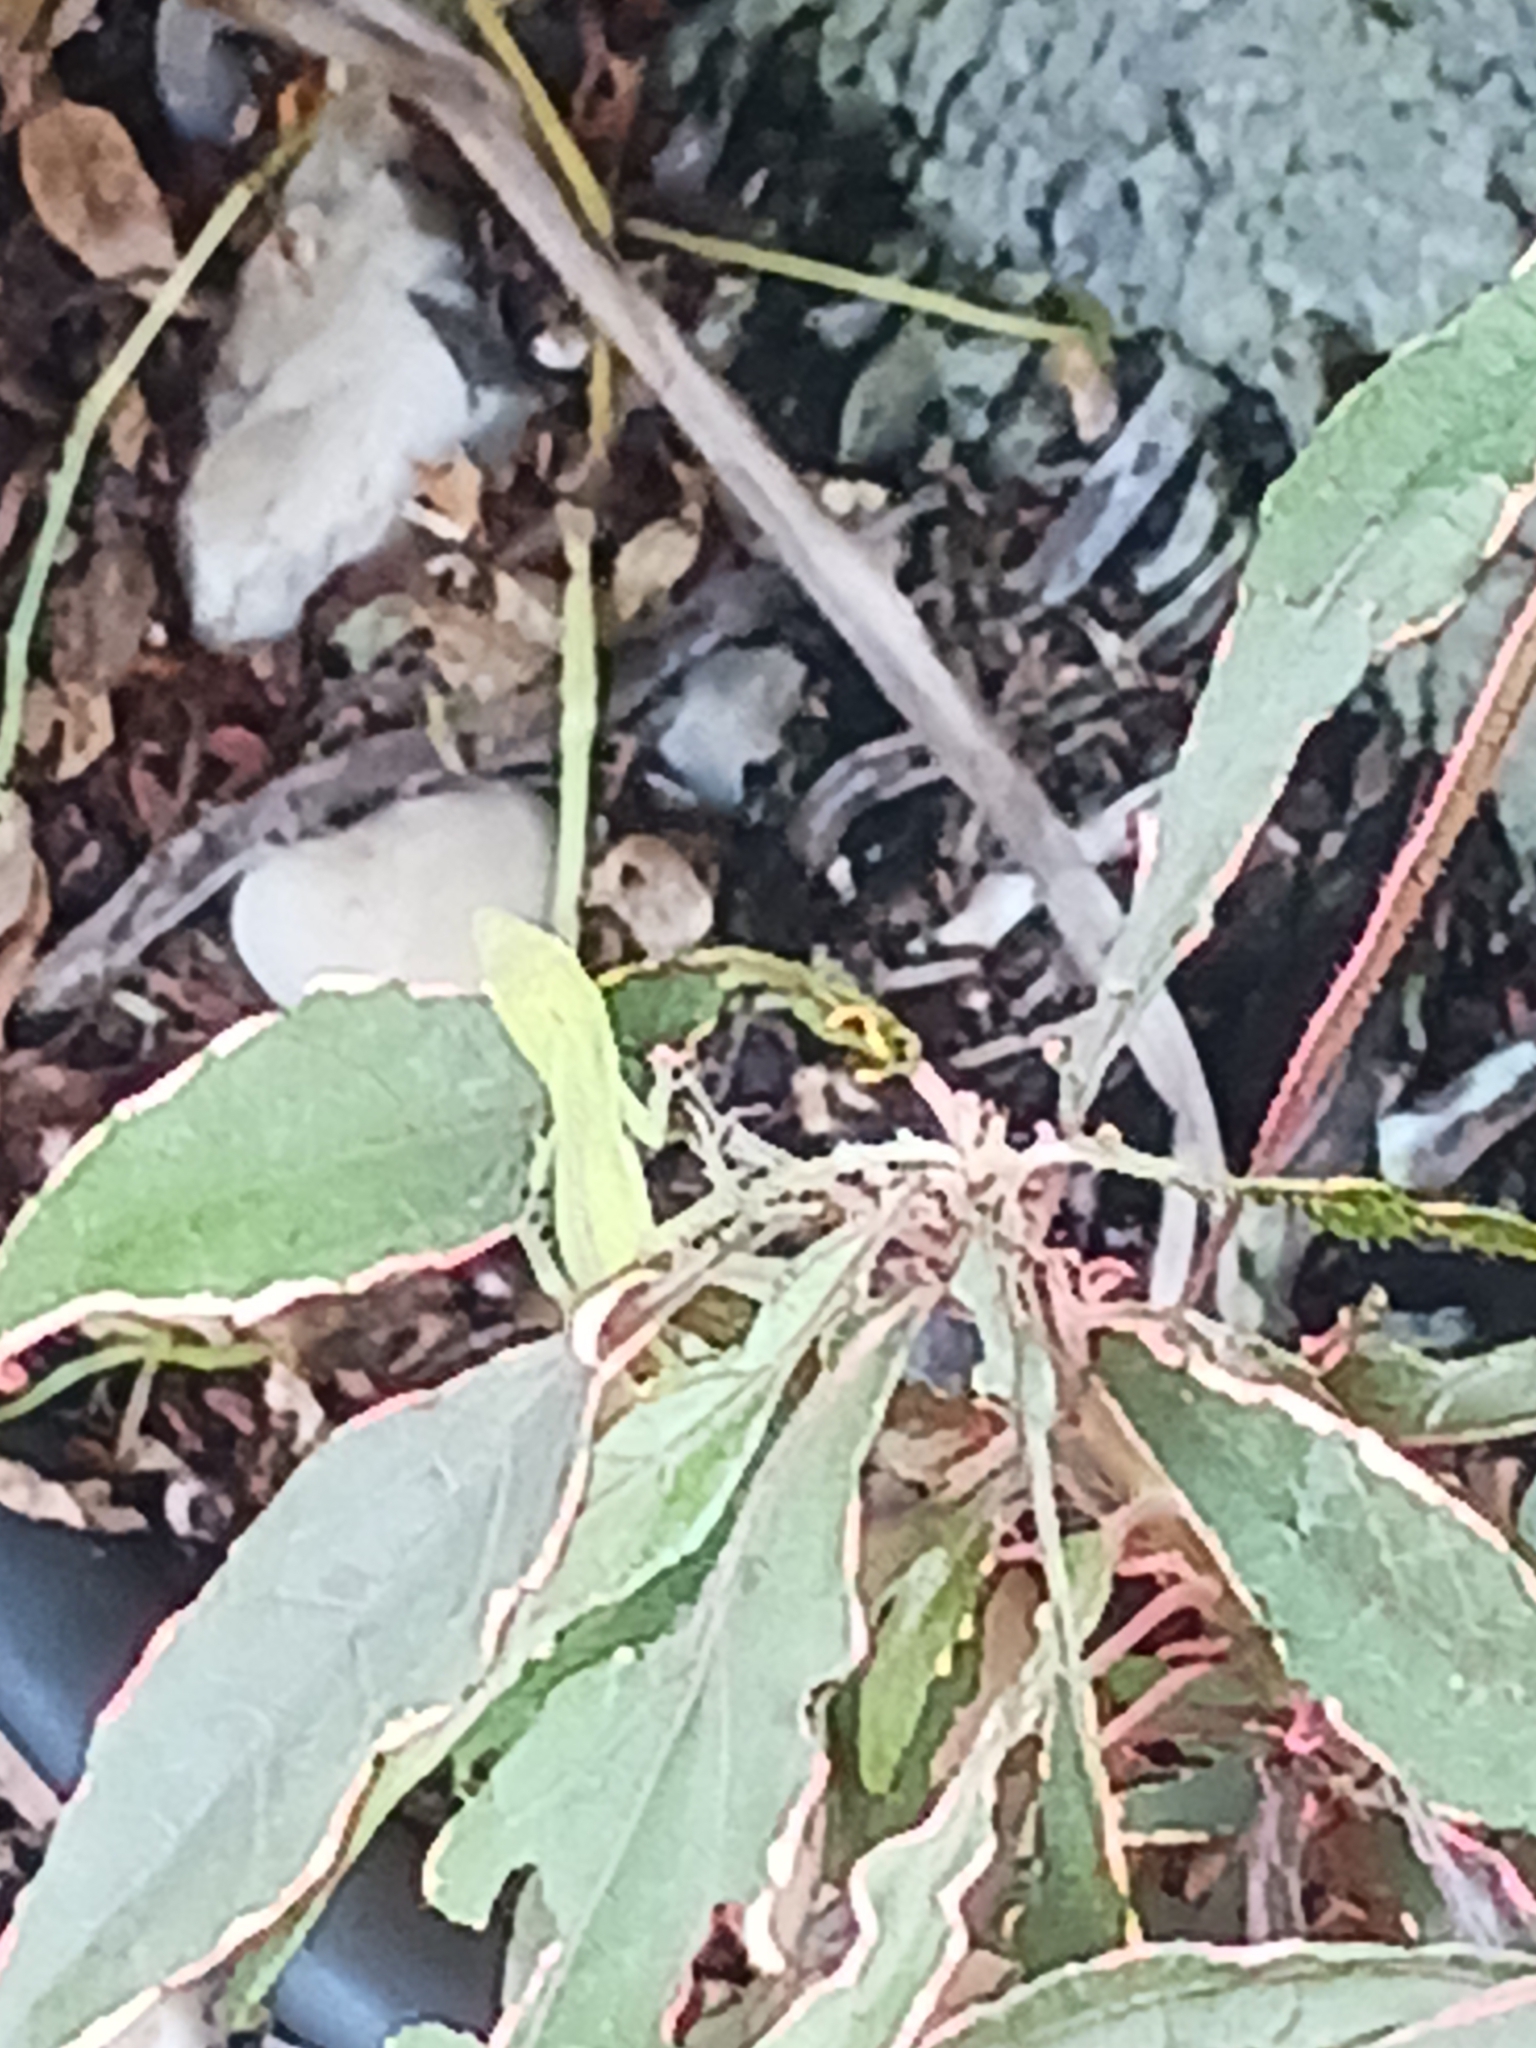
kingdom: Animalia
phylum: Chordata
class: Squamata
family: Dactyloidae
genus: Anolis
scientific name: Anolis carolinensis
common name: Green anole
